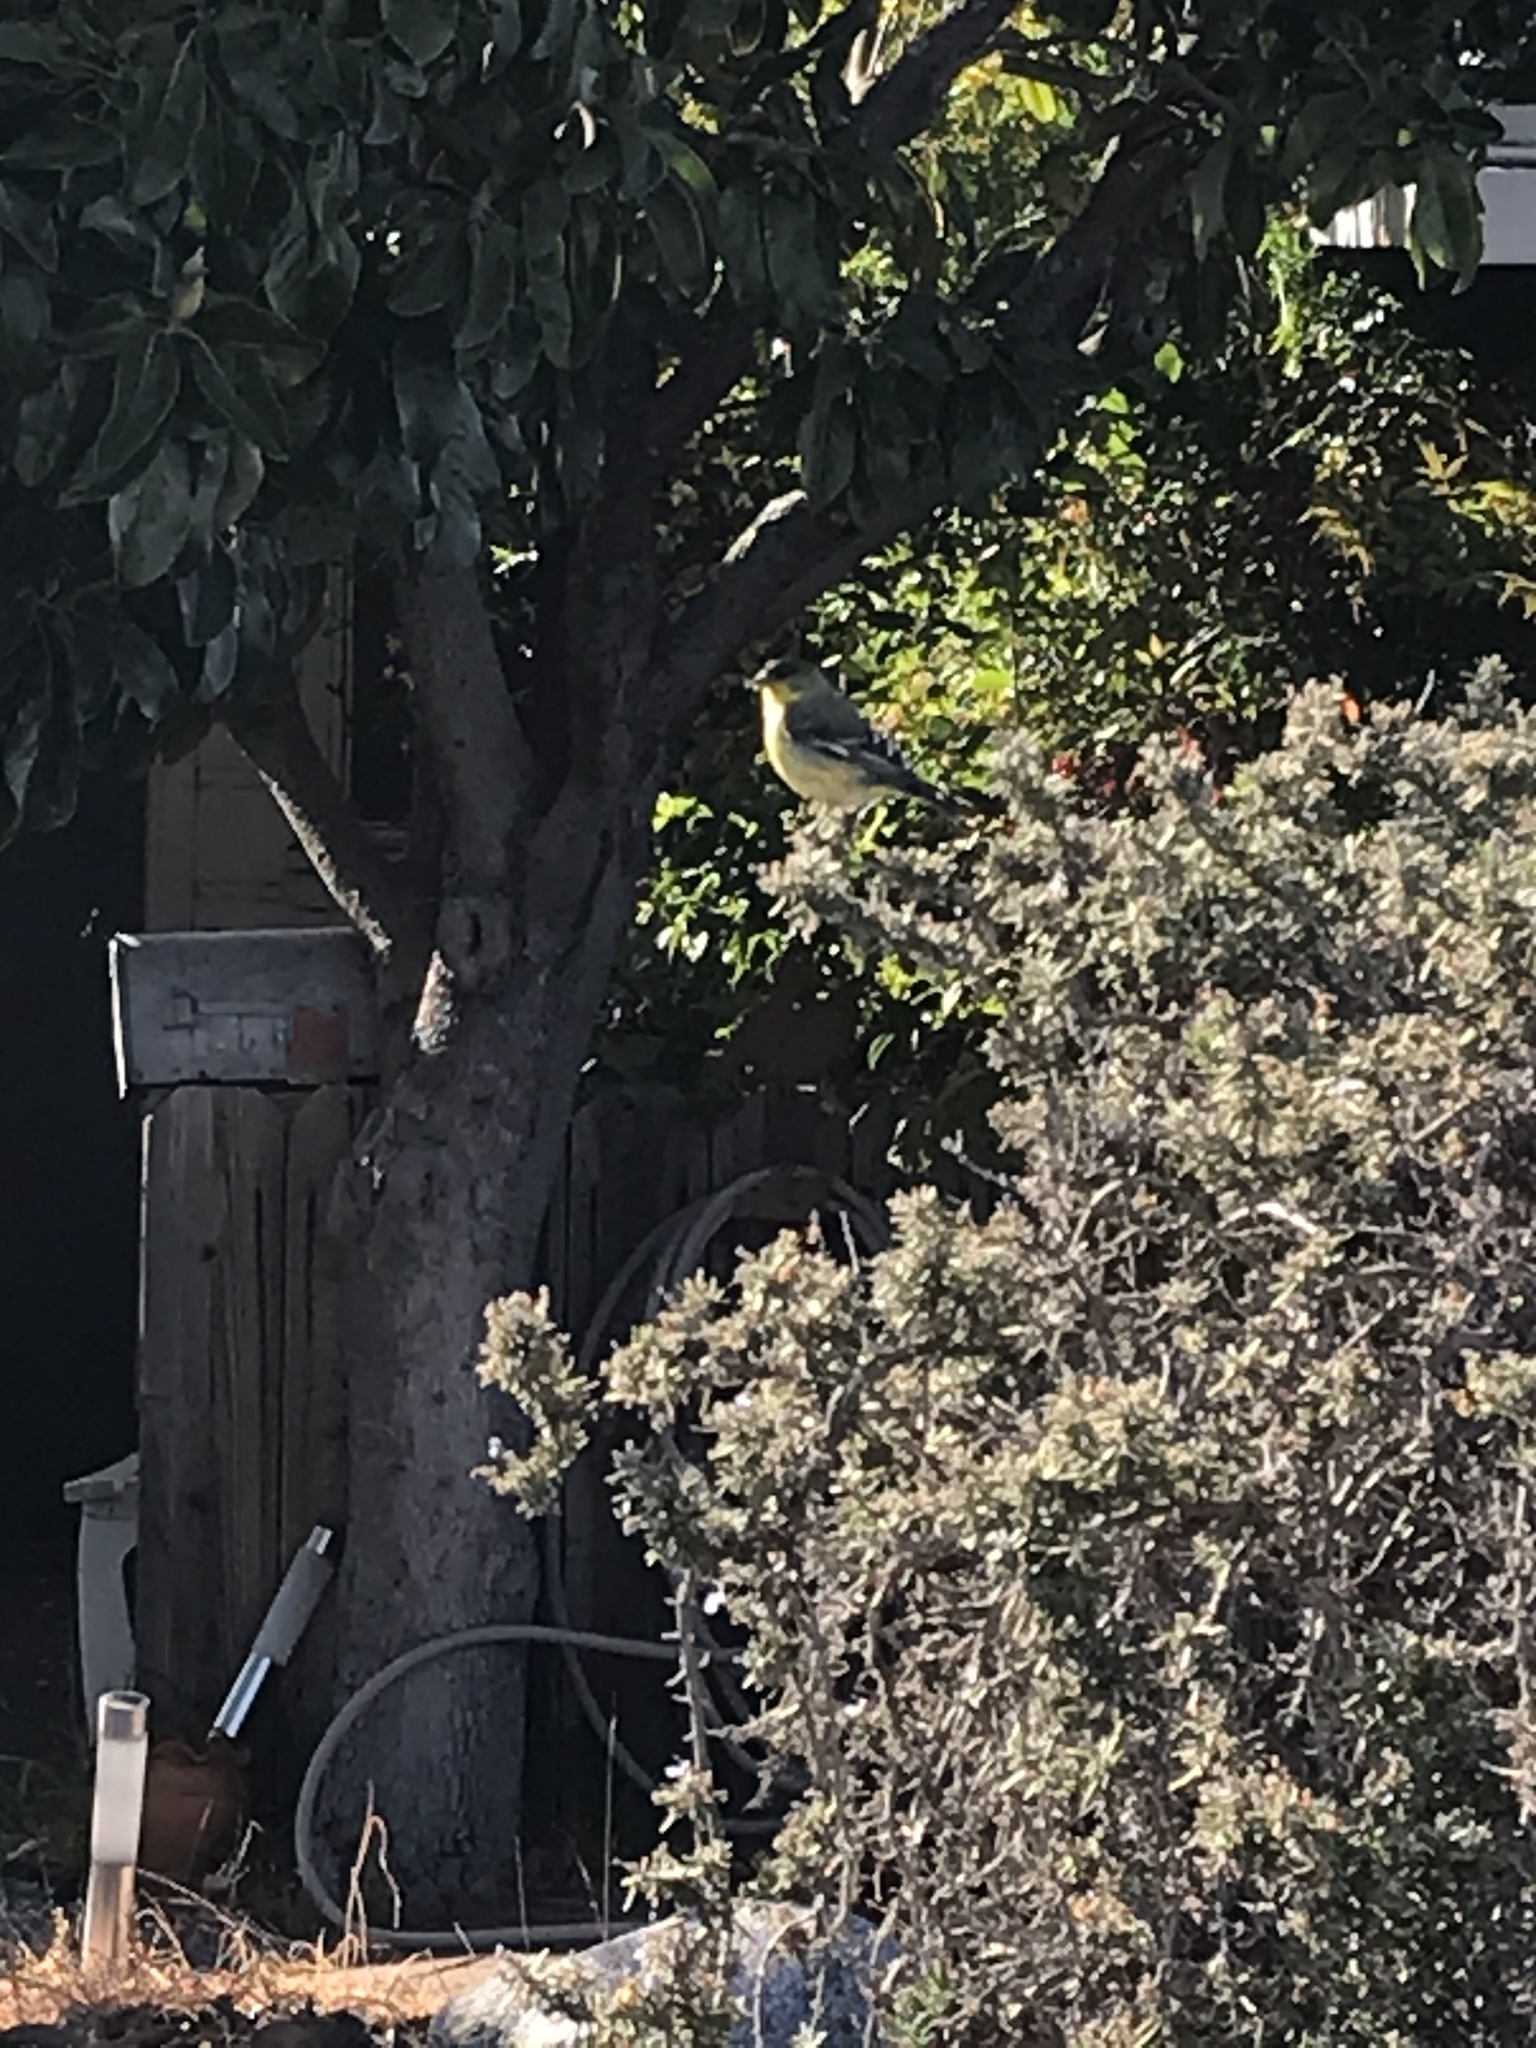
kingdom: Animalia
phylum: Chordata
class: Aves
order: Passeriformes
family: Fringillidae
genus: Spinus
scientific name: Spinus psaltria
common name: Lesser goldfinch
